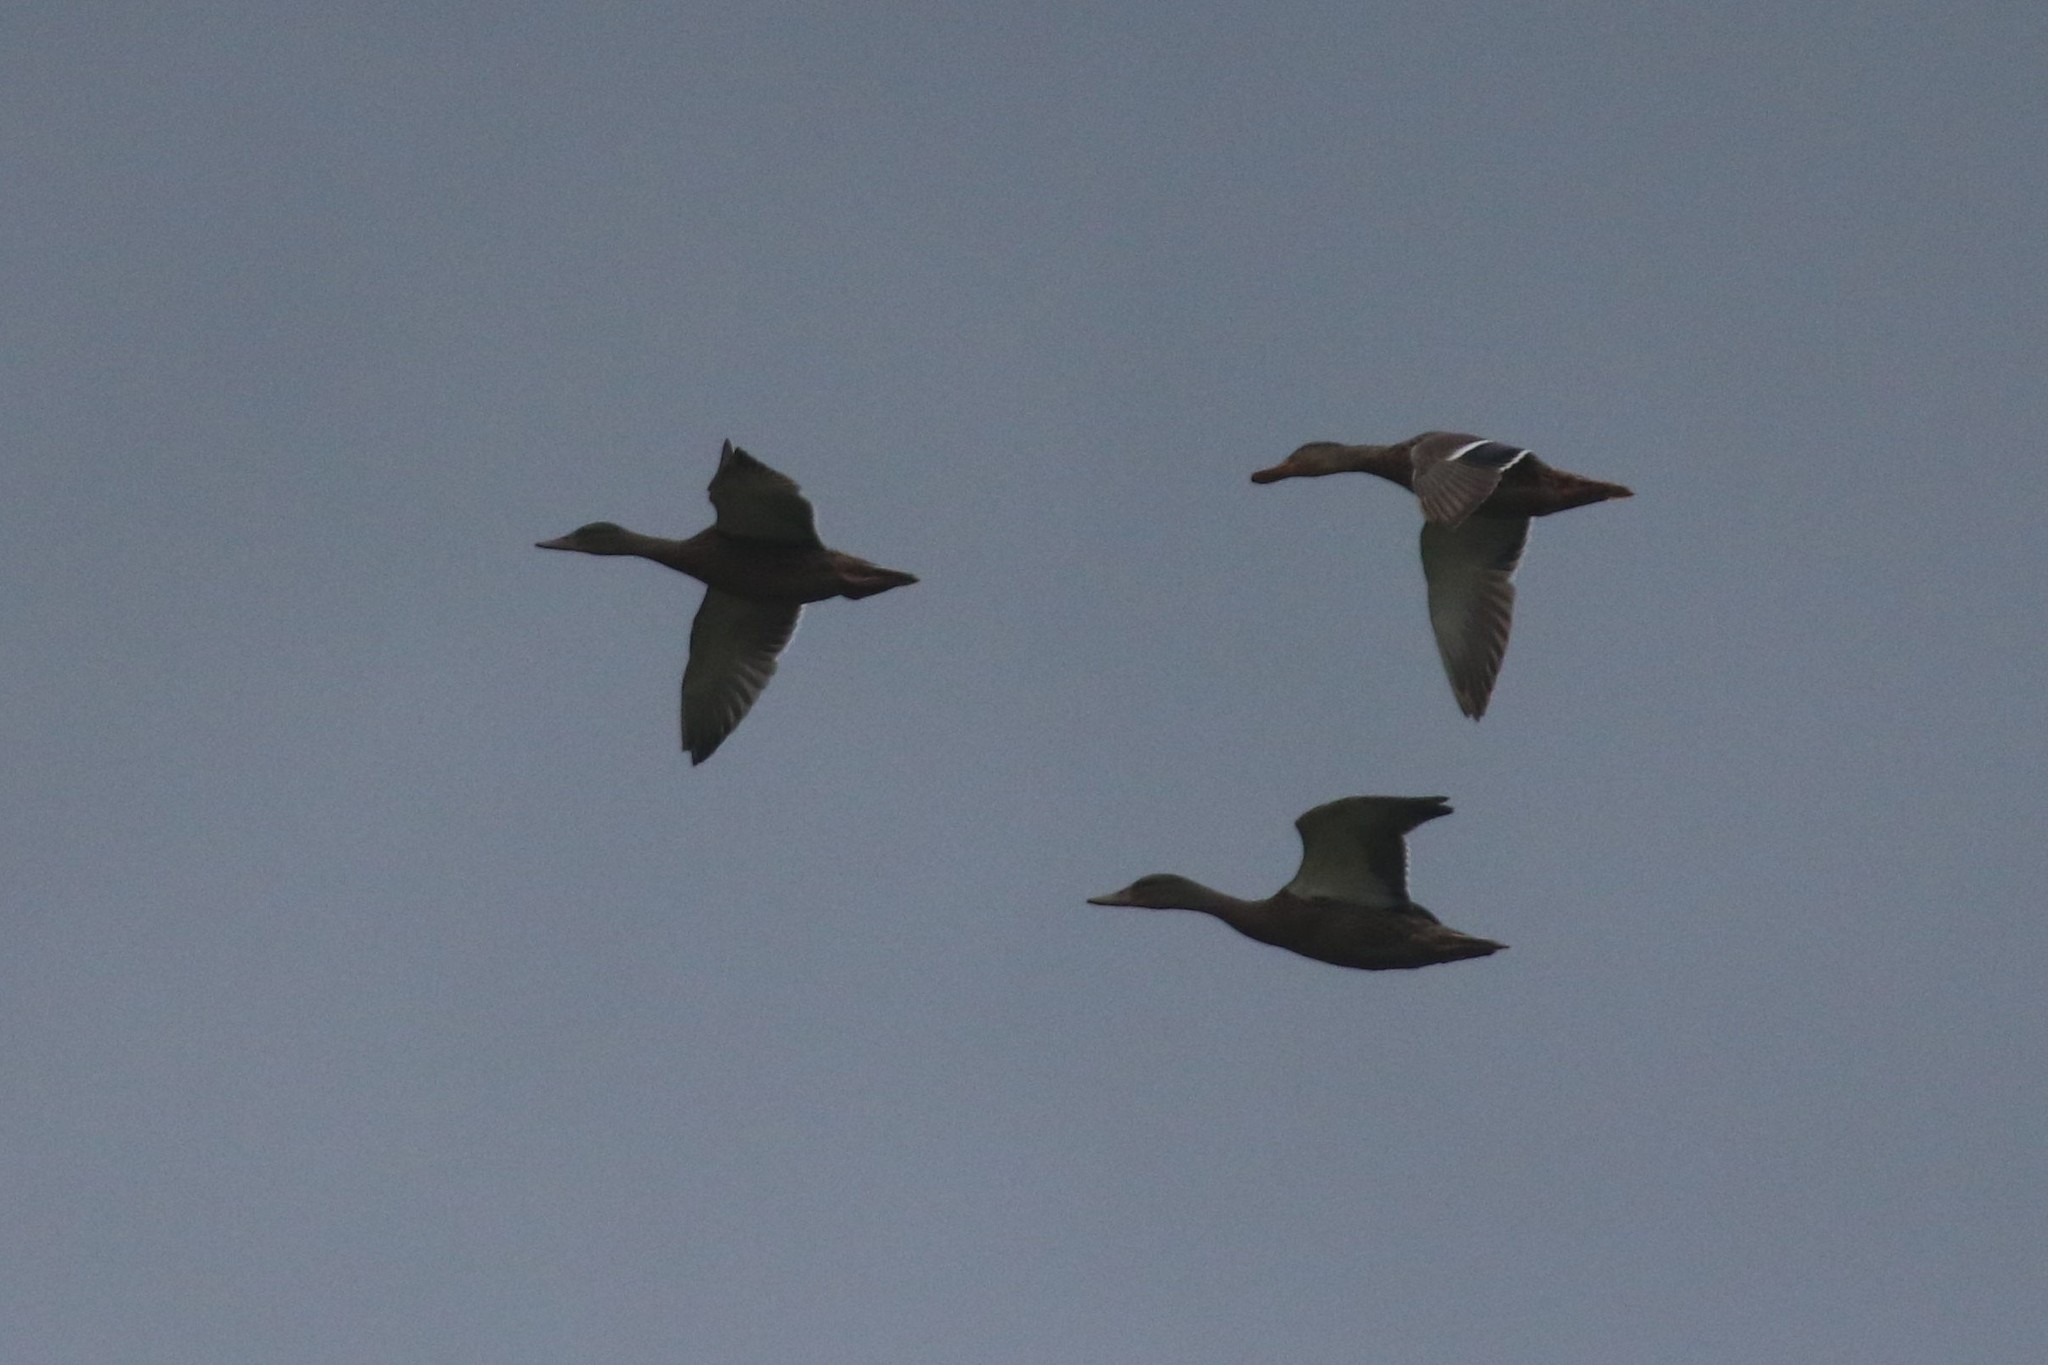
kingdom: Animalia
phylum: Chordata
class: Aves
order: Anseriformes
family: Anatidae
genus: Anas
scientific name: Anas platyrhynchos
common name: Mallard
